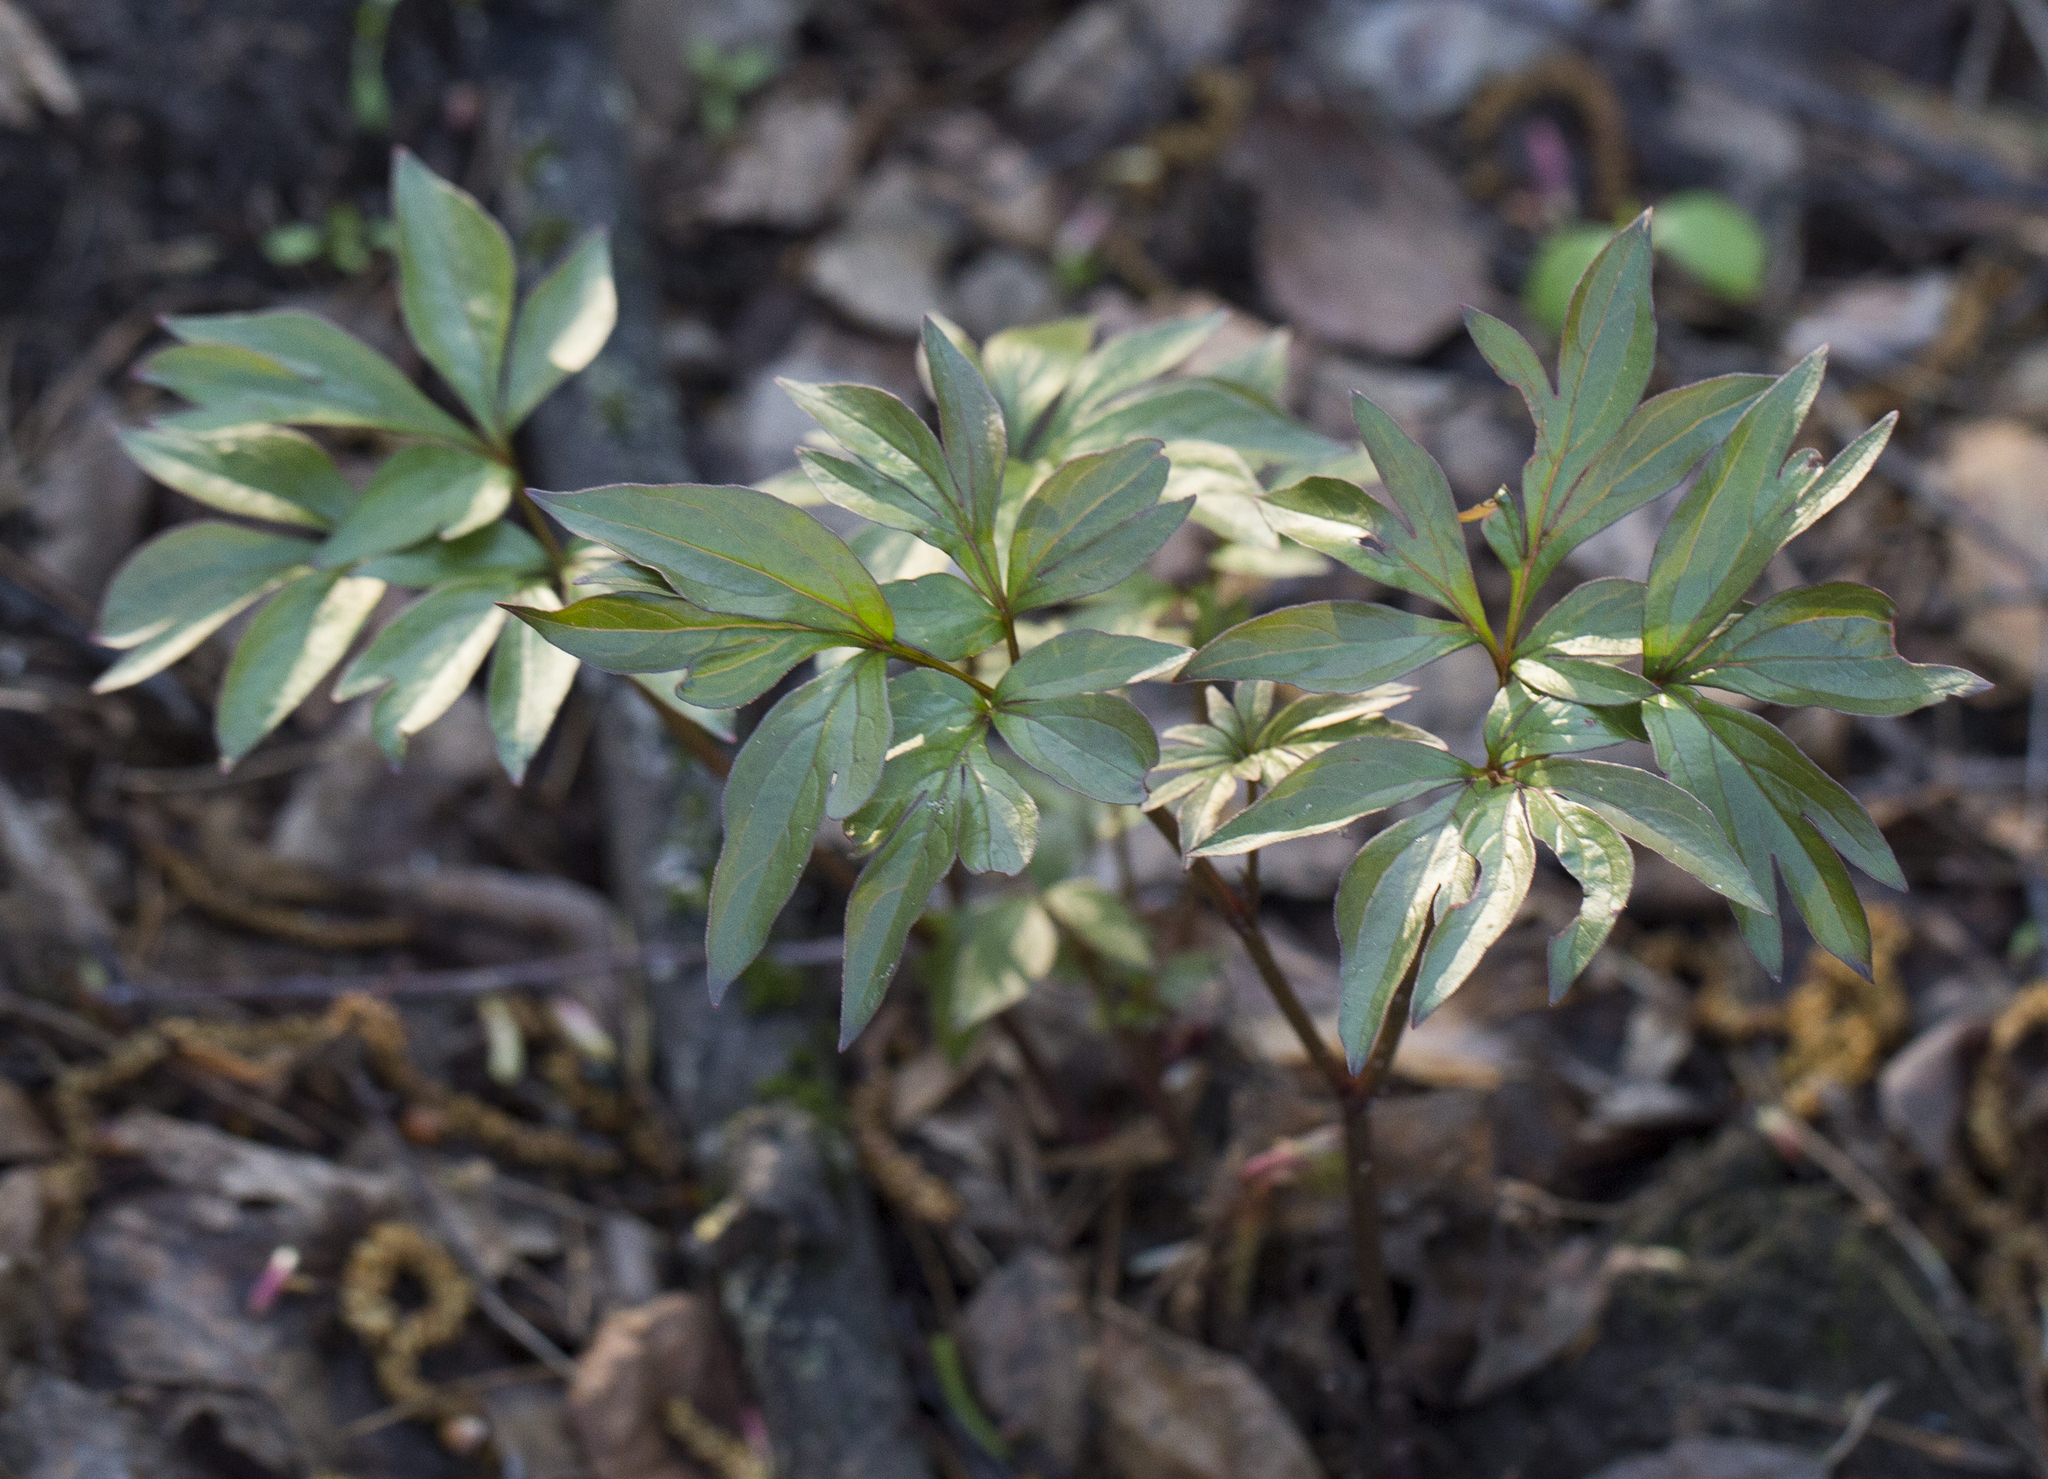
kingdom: Plantae
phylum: Tracheophyta
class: Magnoliopsida
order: Saxifragales
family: Paeoniaceae
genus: Paeonia
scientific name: Paeonia lactiflora
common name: Chinese peony
